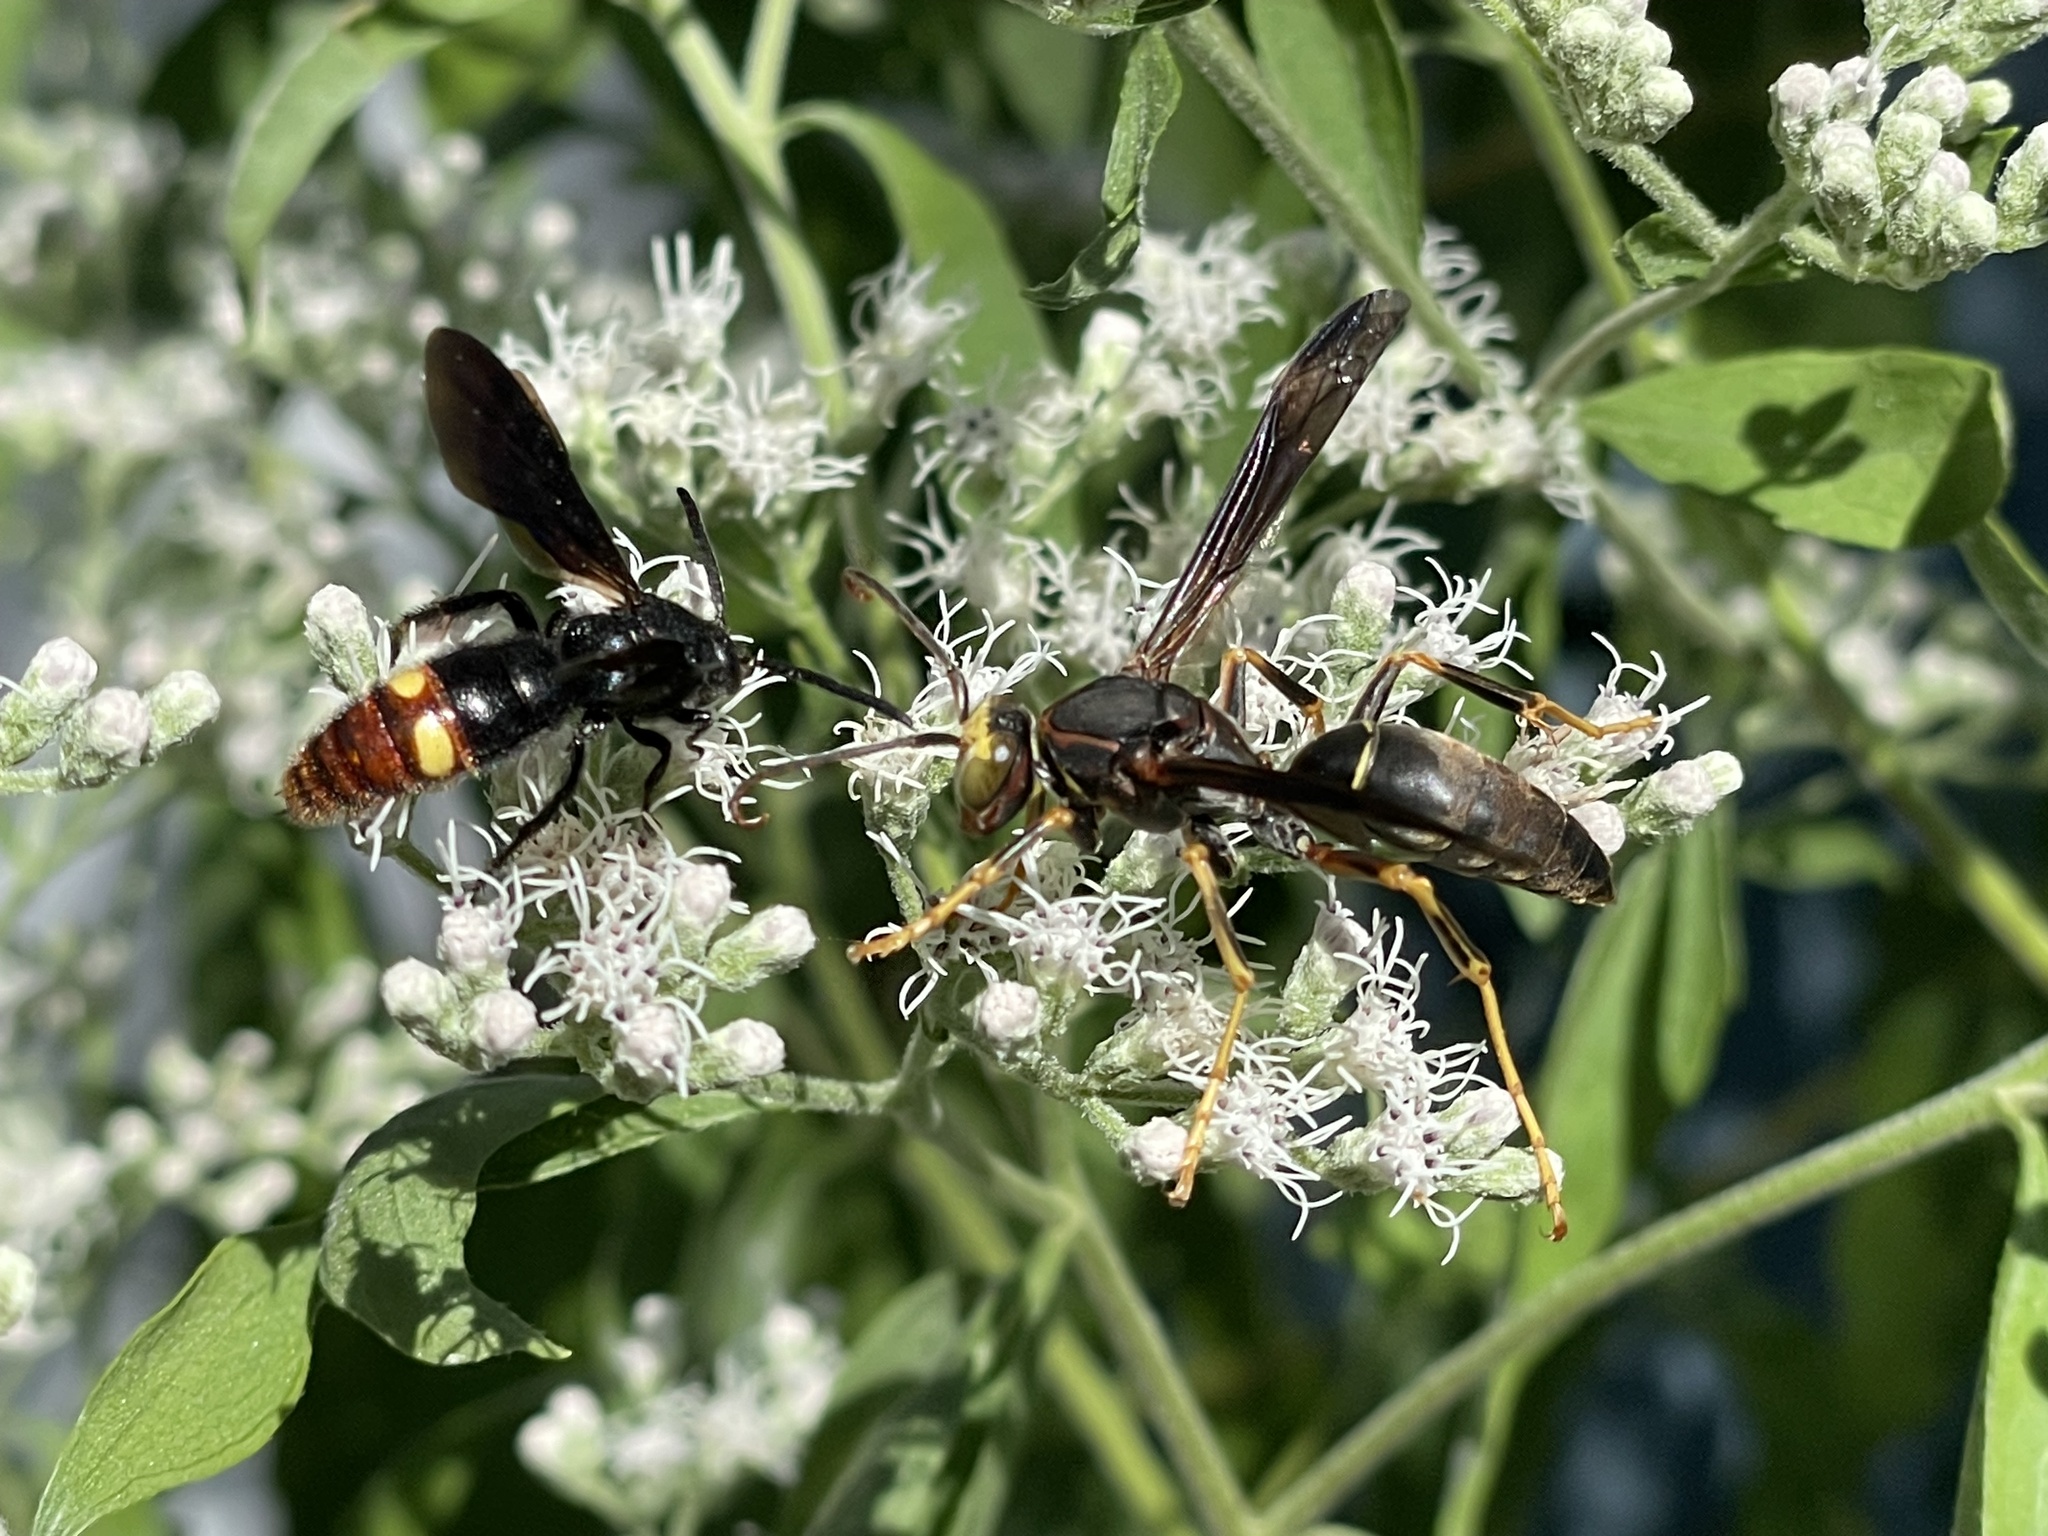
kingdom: Animalia
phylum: Arthropoda
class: Insecta
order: Hymenoptera
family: Scoliidae
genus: Scolia
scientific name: Scolia dubia
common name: Blue-winged scoliid wasp
